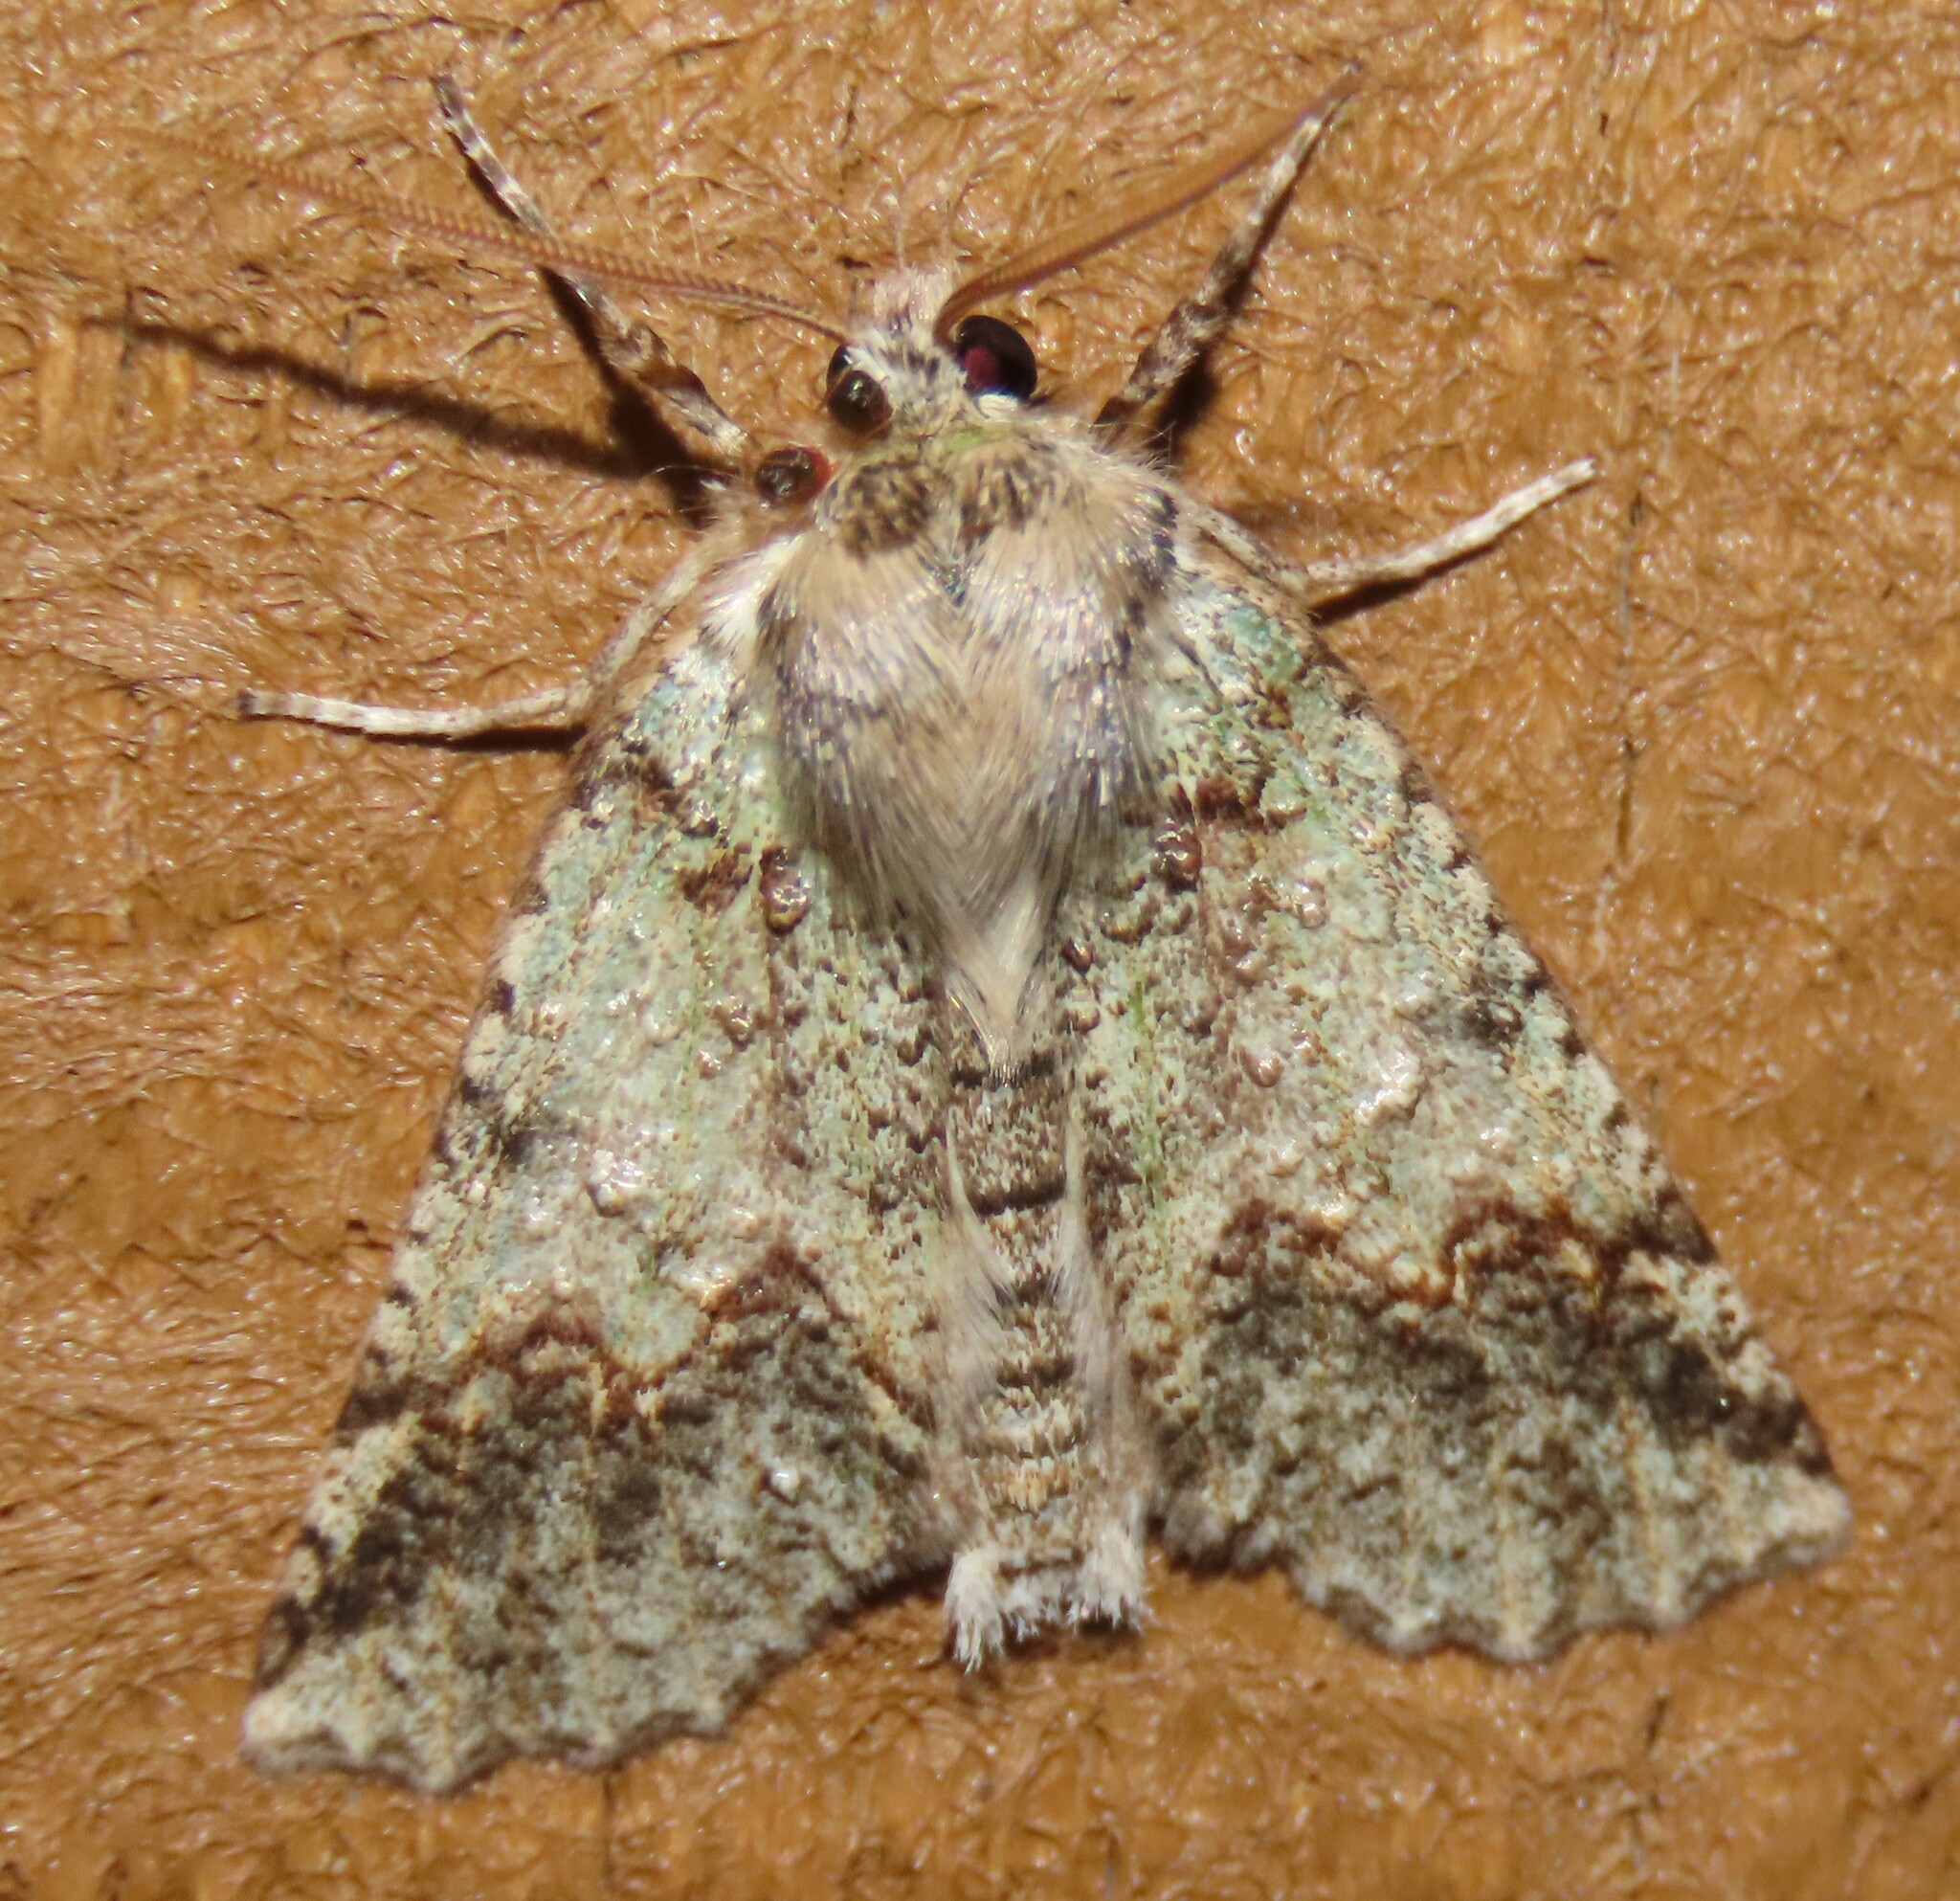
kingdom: Animalia
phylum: Arthropoda
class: Insecta
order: Lepidoptera
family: Geometridae
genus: Declana
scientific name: Declana floccosa
